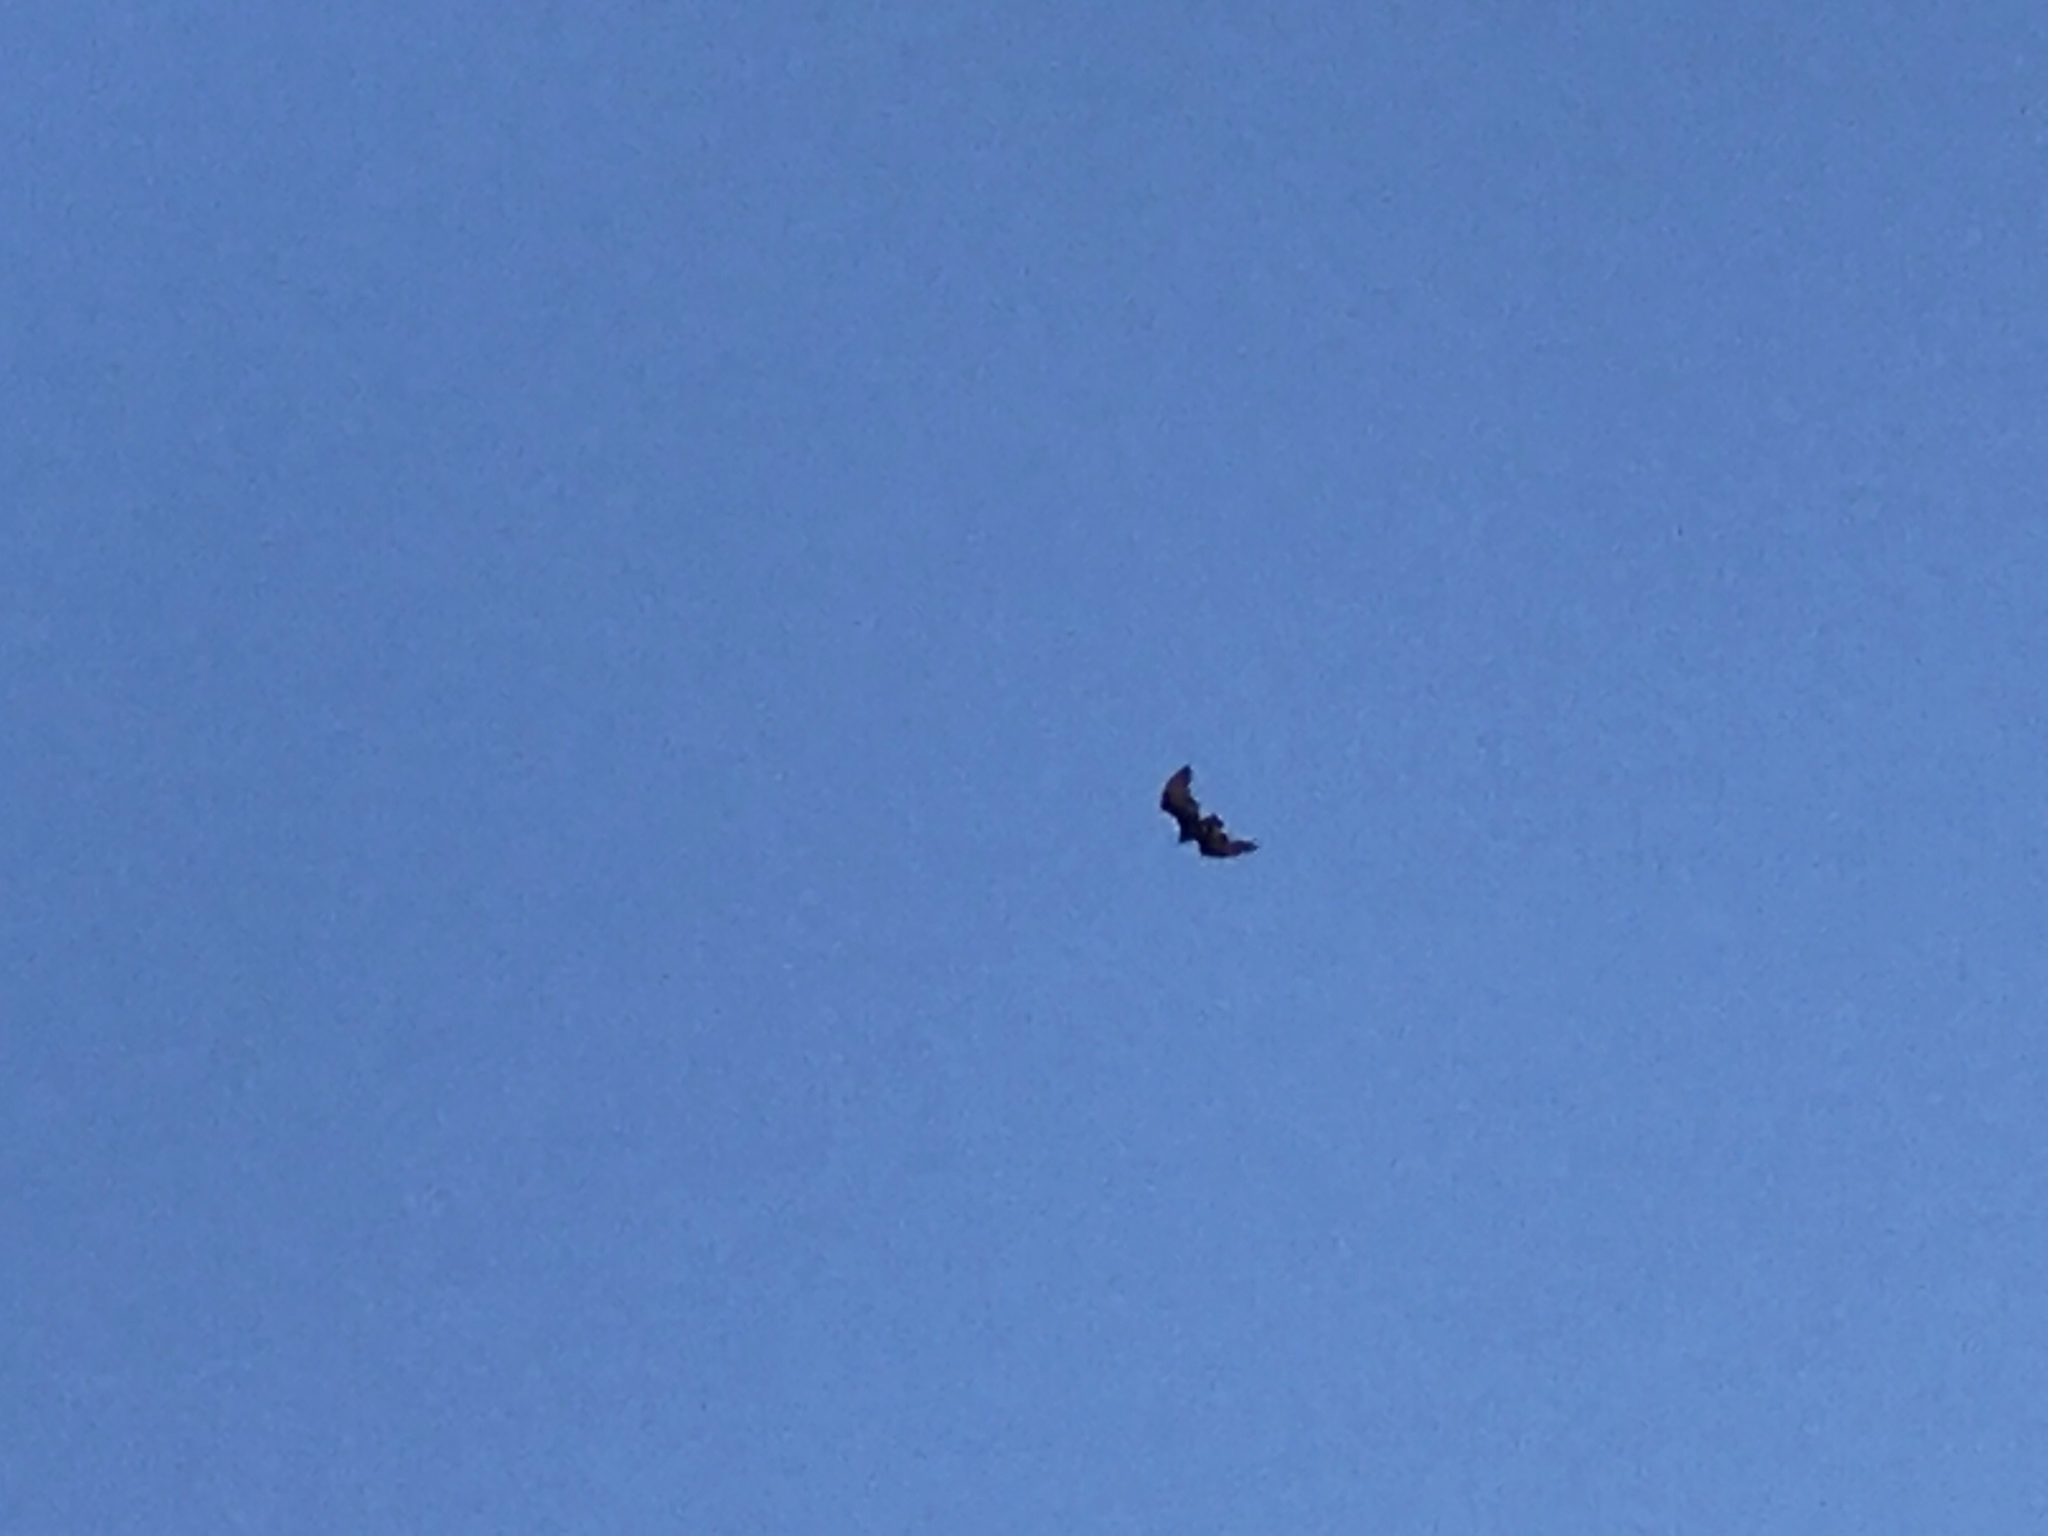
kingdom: Animalia
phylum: Chordata
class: Aves
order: Accipitriformes
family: Cathartidae
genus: Cathartes
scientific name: Cathartes aura
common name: Turkey vulture
